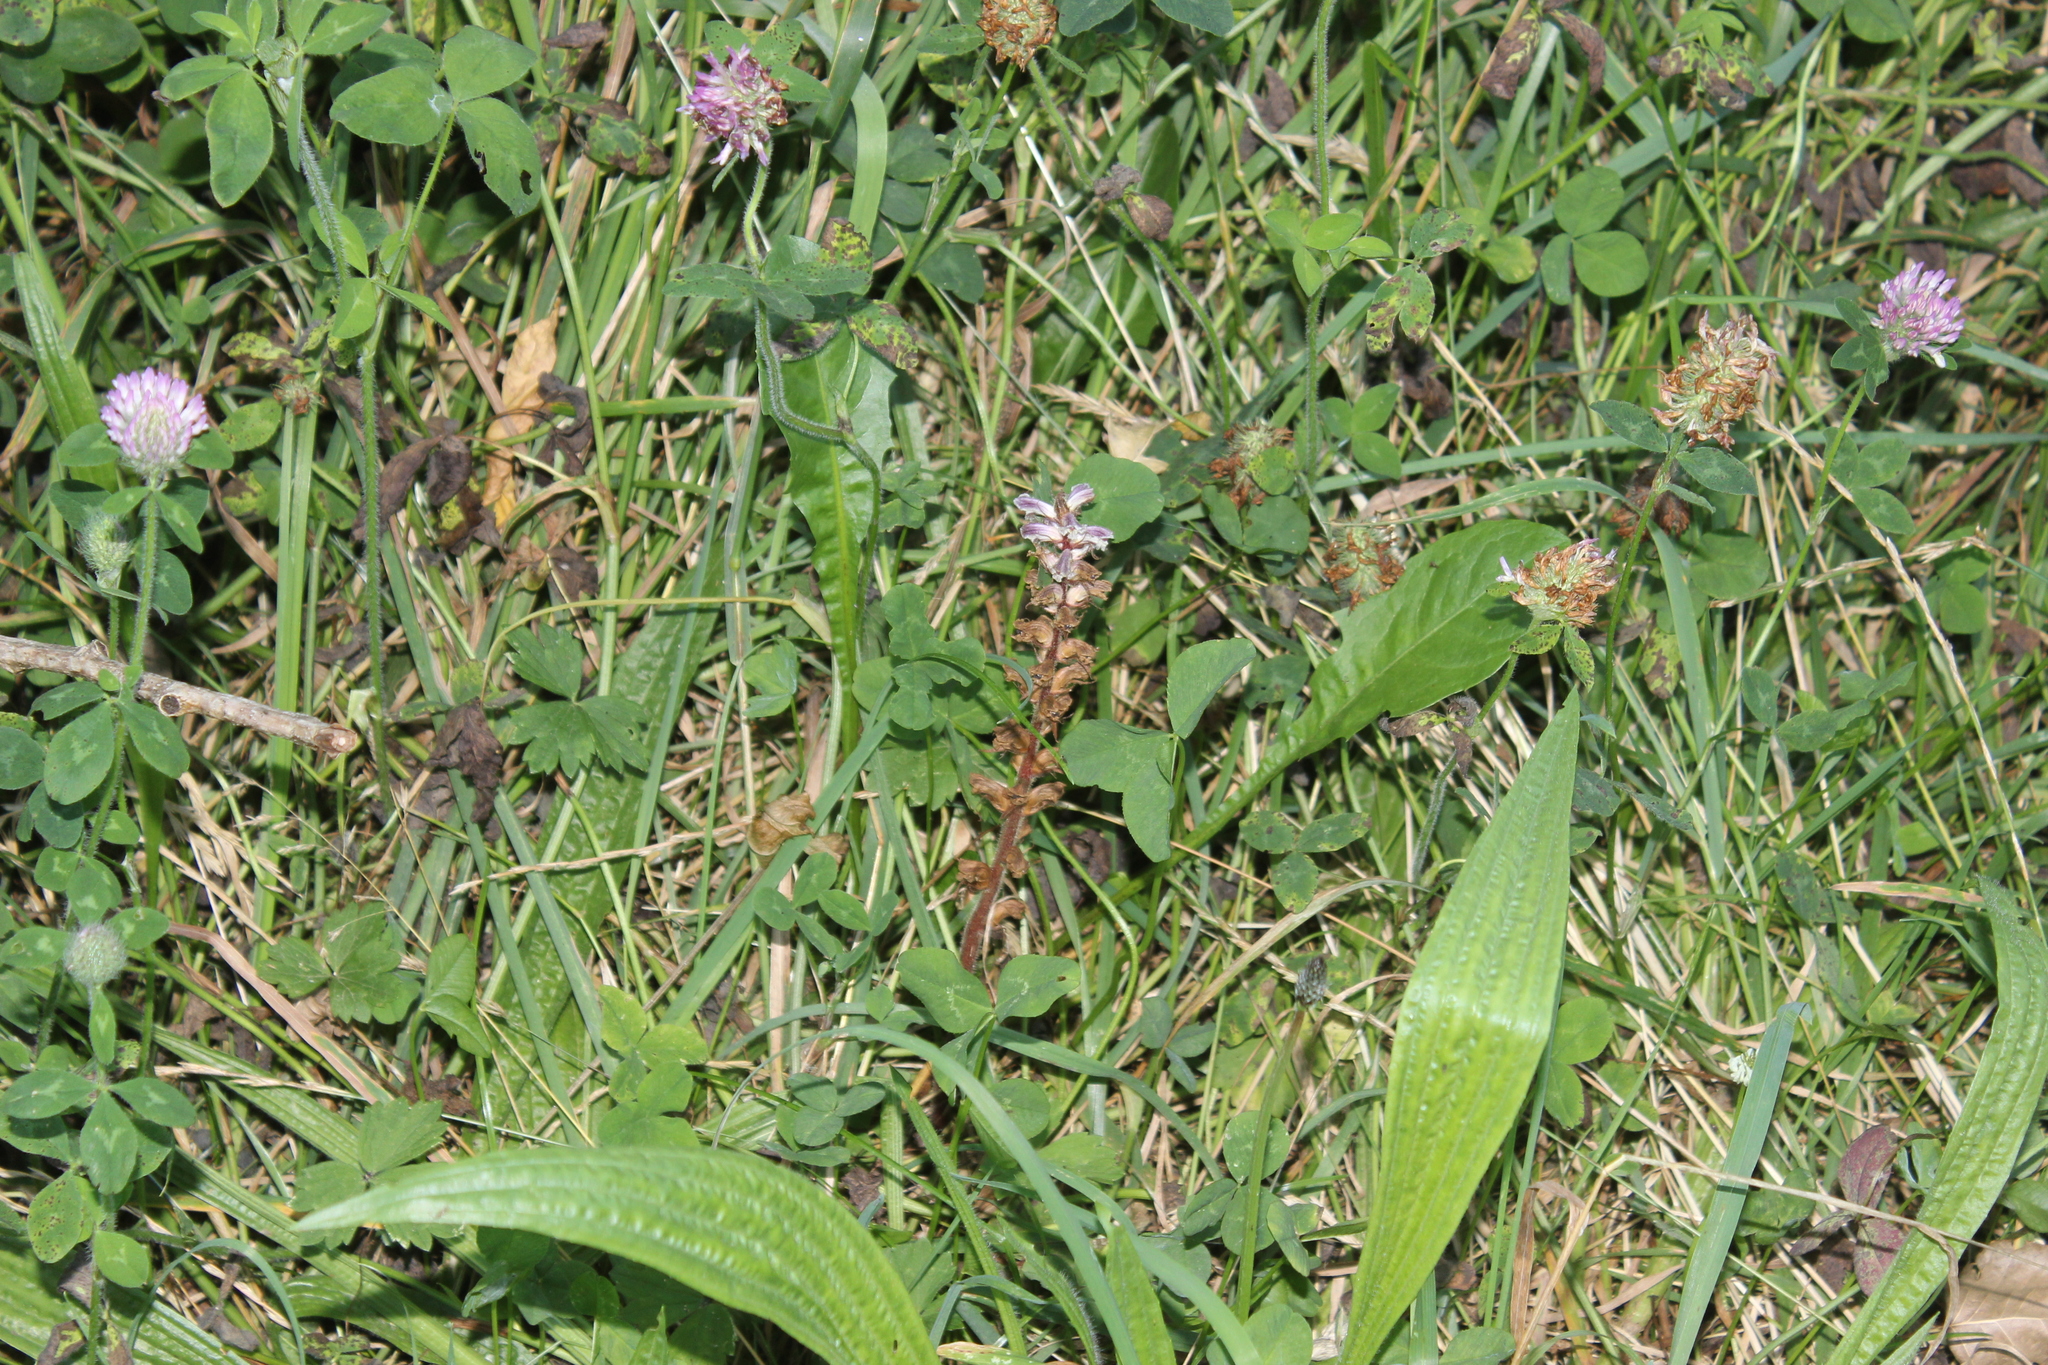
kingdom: Plantae
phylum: Tracheophyta
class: Magnoliopsida
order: Lamiales
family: Orobanchaceae
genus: Orobanche
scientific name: Orobanche minor
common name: Common broomrape
